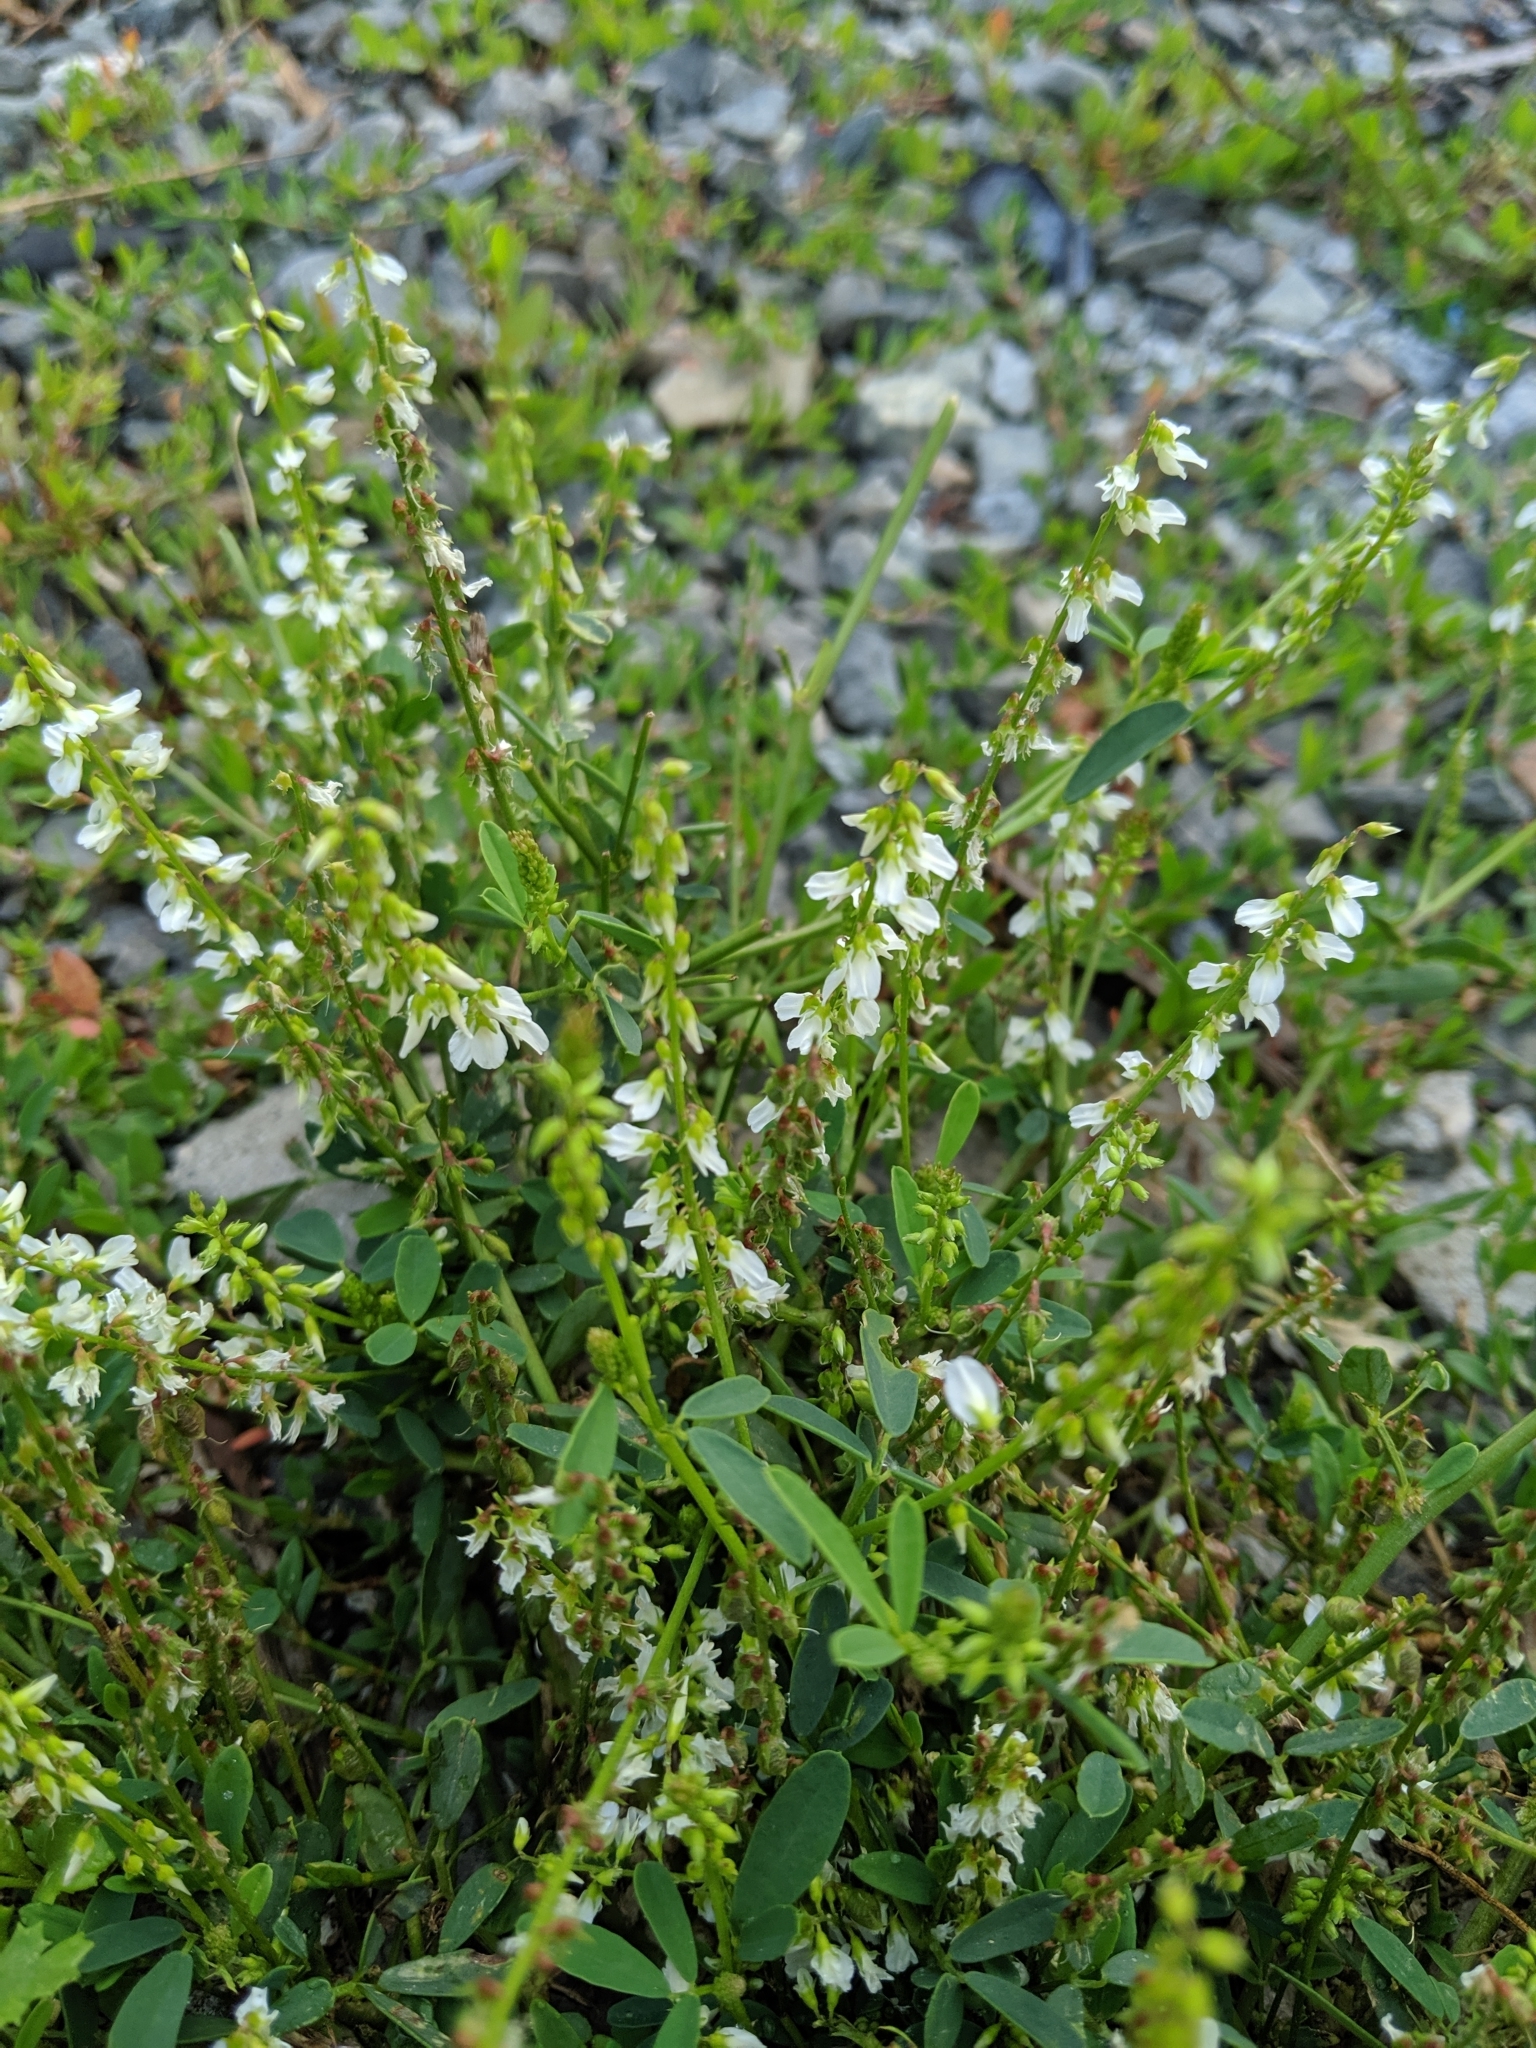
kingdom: Plantae
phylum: Tracheophyta
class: Magnoliopsida
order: Fabales
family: Fabaceae
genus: Melilotus
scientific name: Melilotus albus
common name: White melilot
